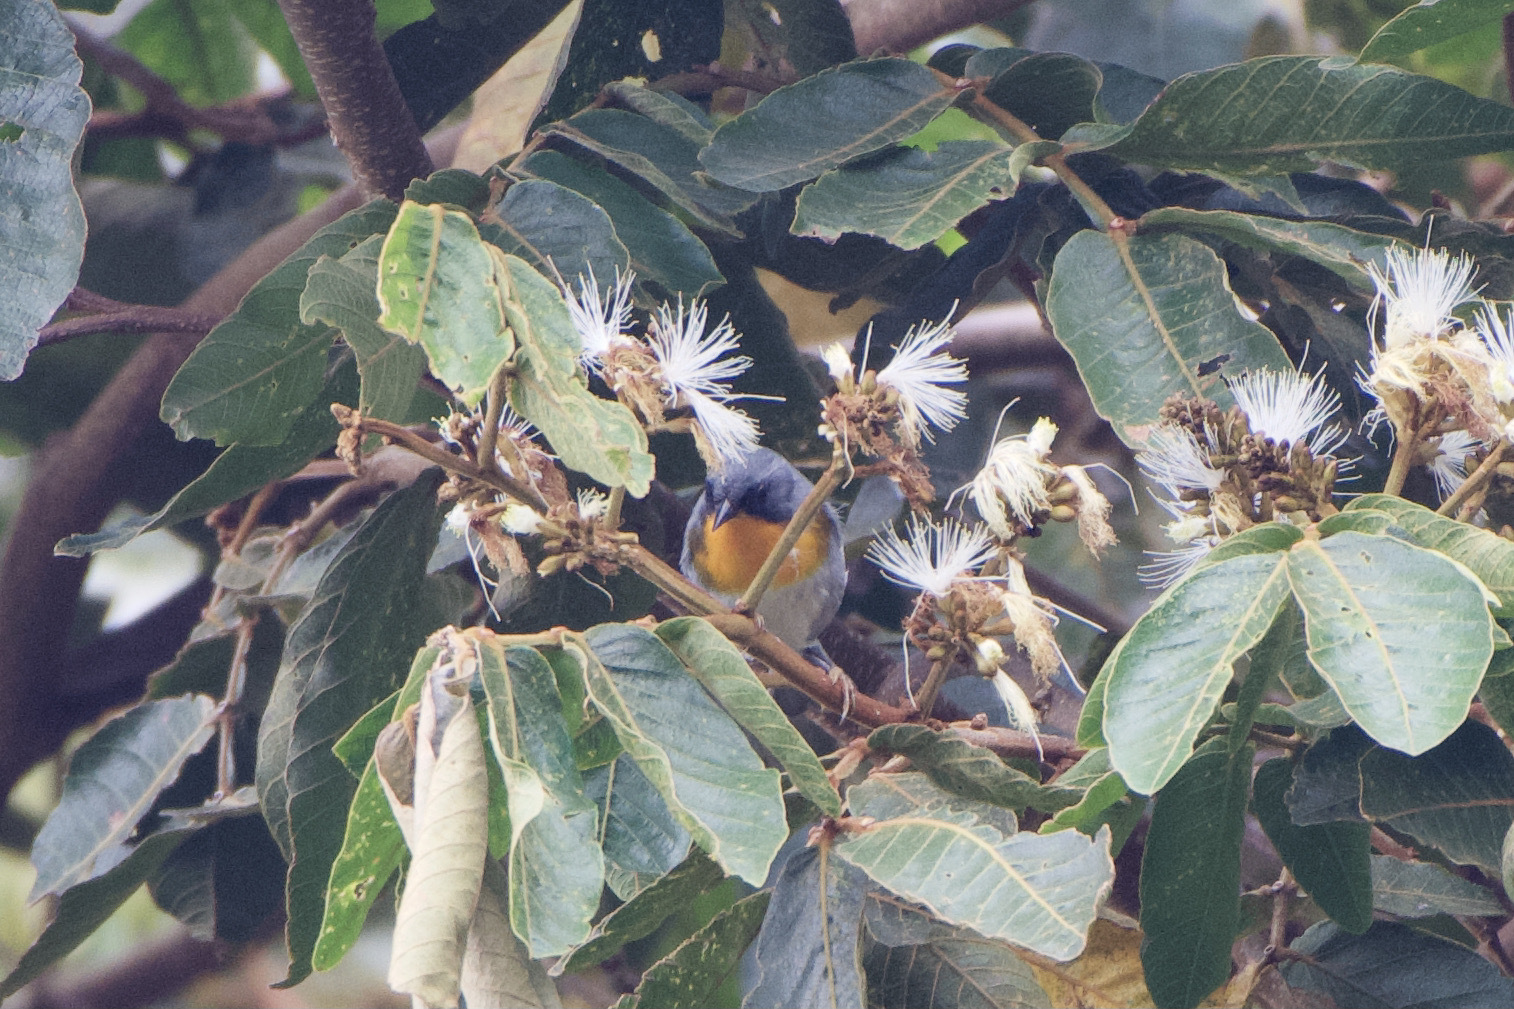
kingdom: Animalia
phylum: Chordata
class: Aves
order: Passeriformes
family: Parulidae
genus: Oreothlypis
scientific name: Oreothlypis gutturalis
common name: Flame-throated warbler
